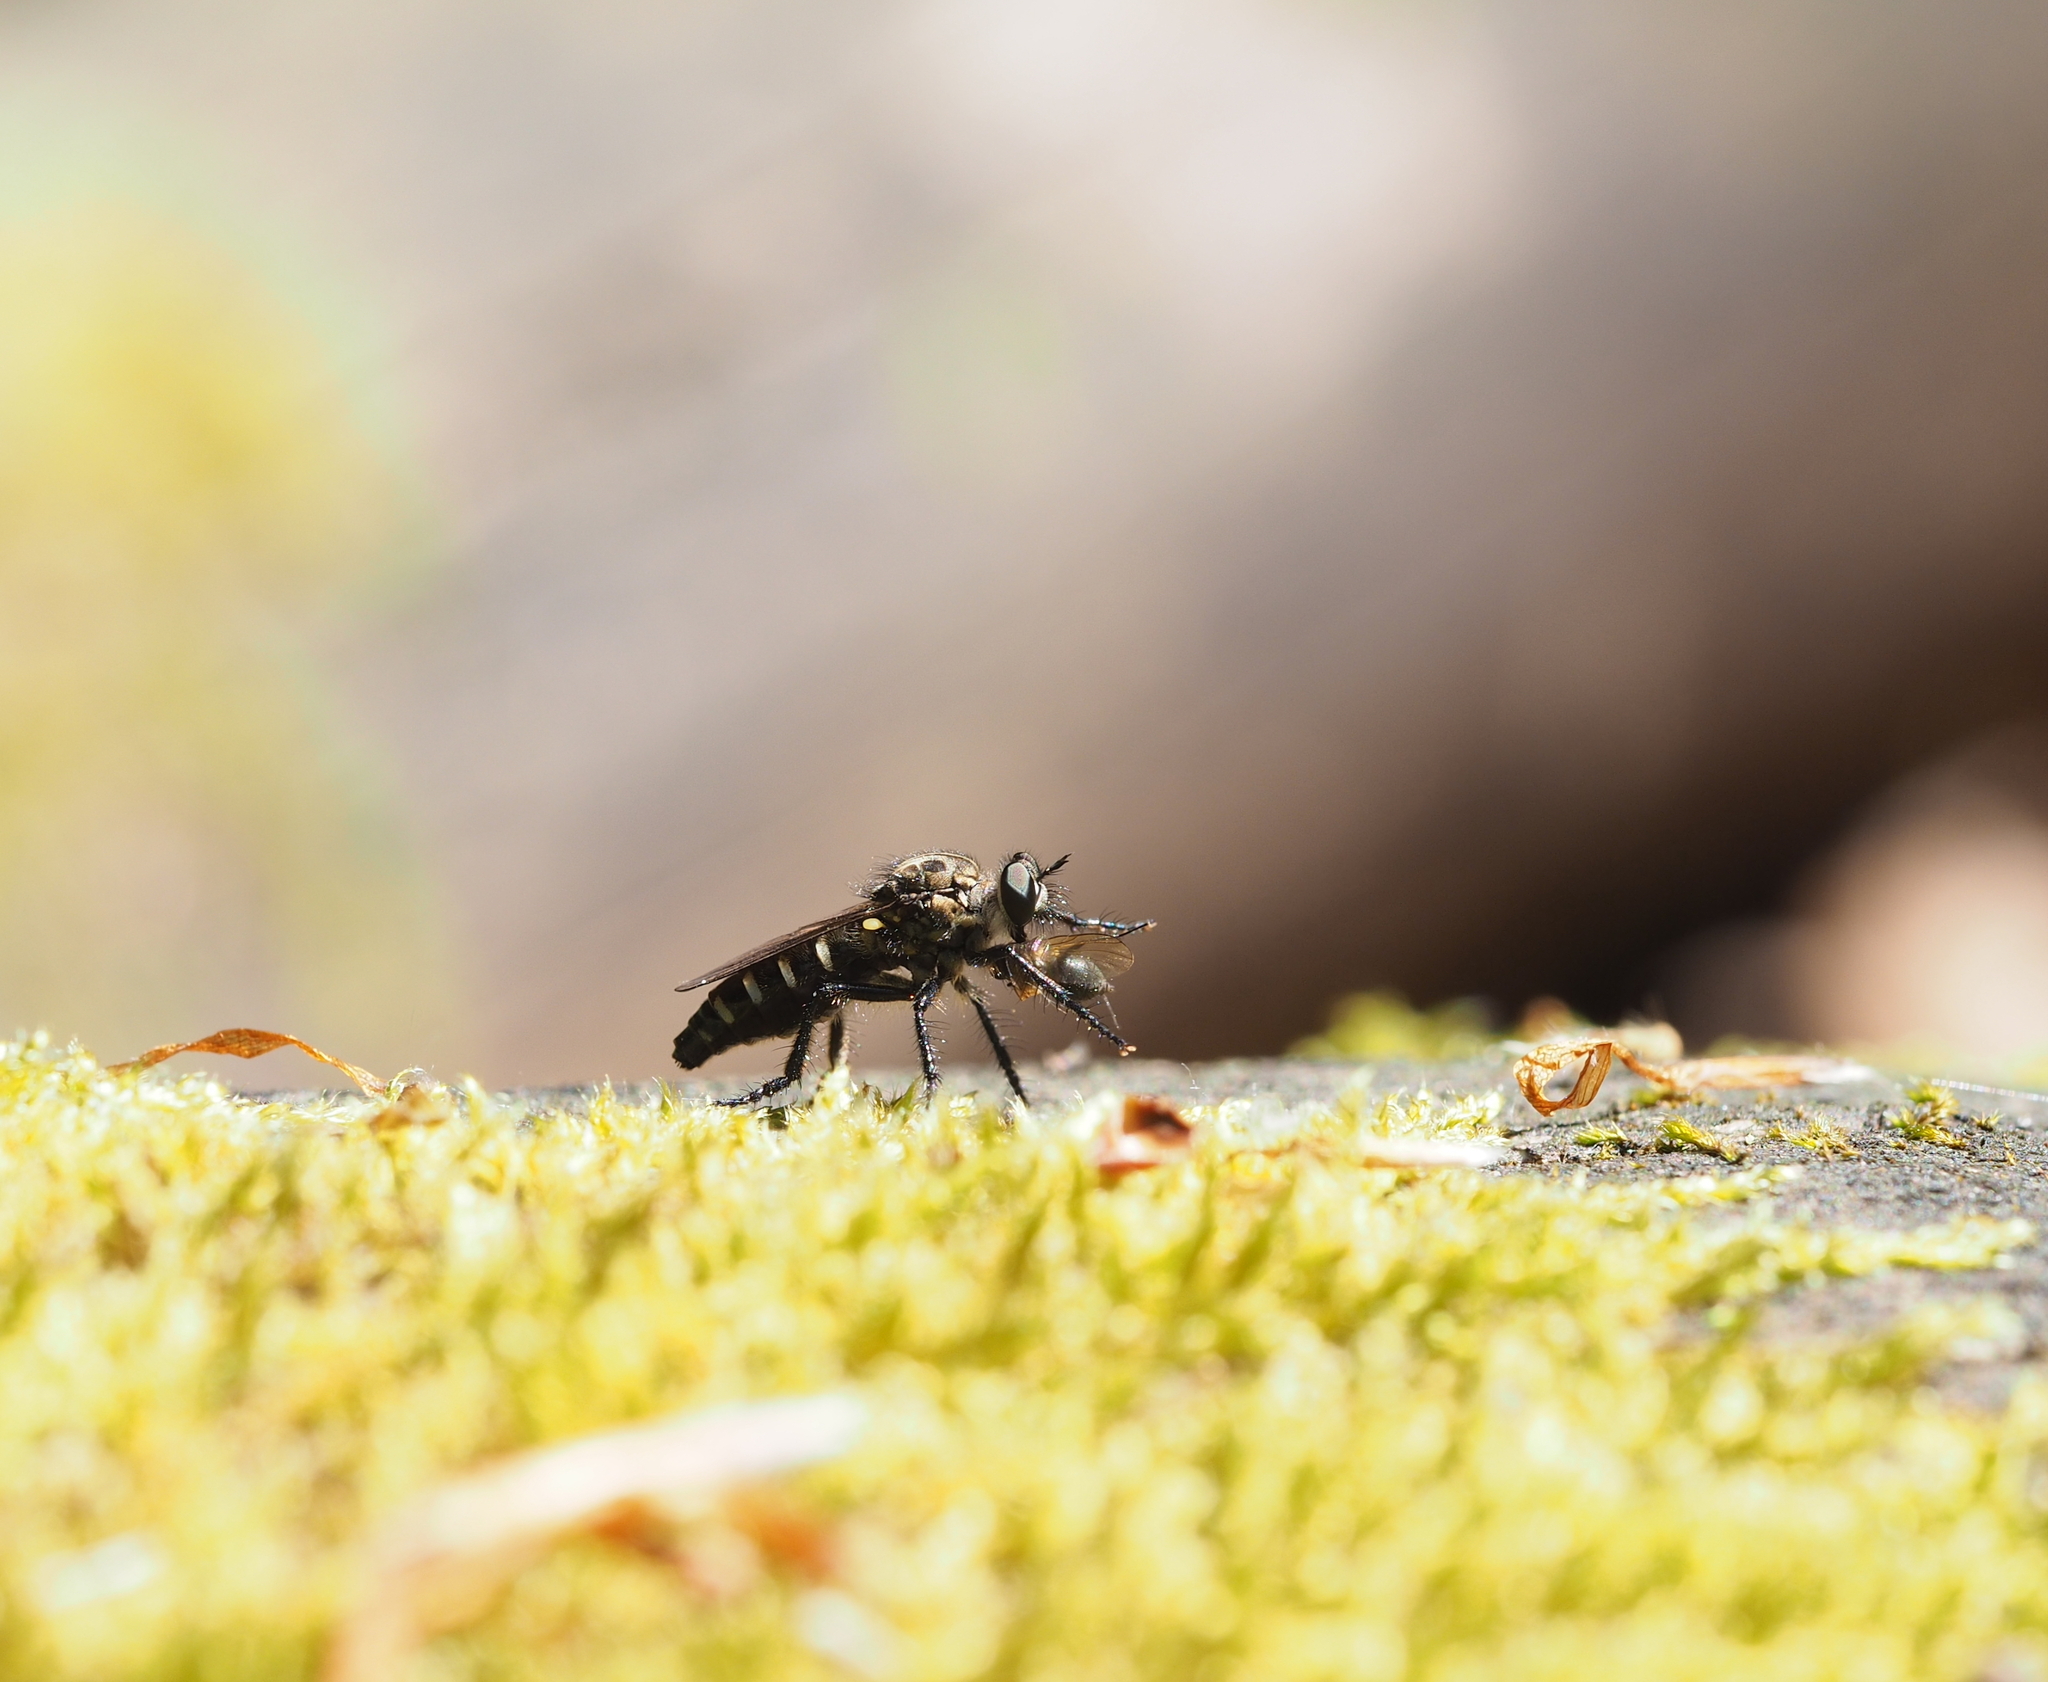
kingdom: Animalia
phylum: Arthropoda
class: Insecta
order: Diptera
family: Asilidae
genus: Cyrtopogon
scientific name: Cyrtopogon lateralis
